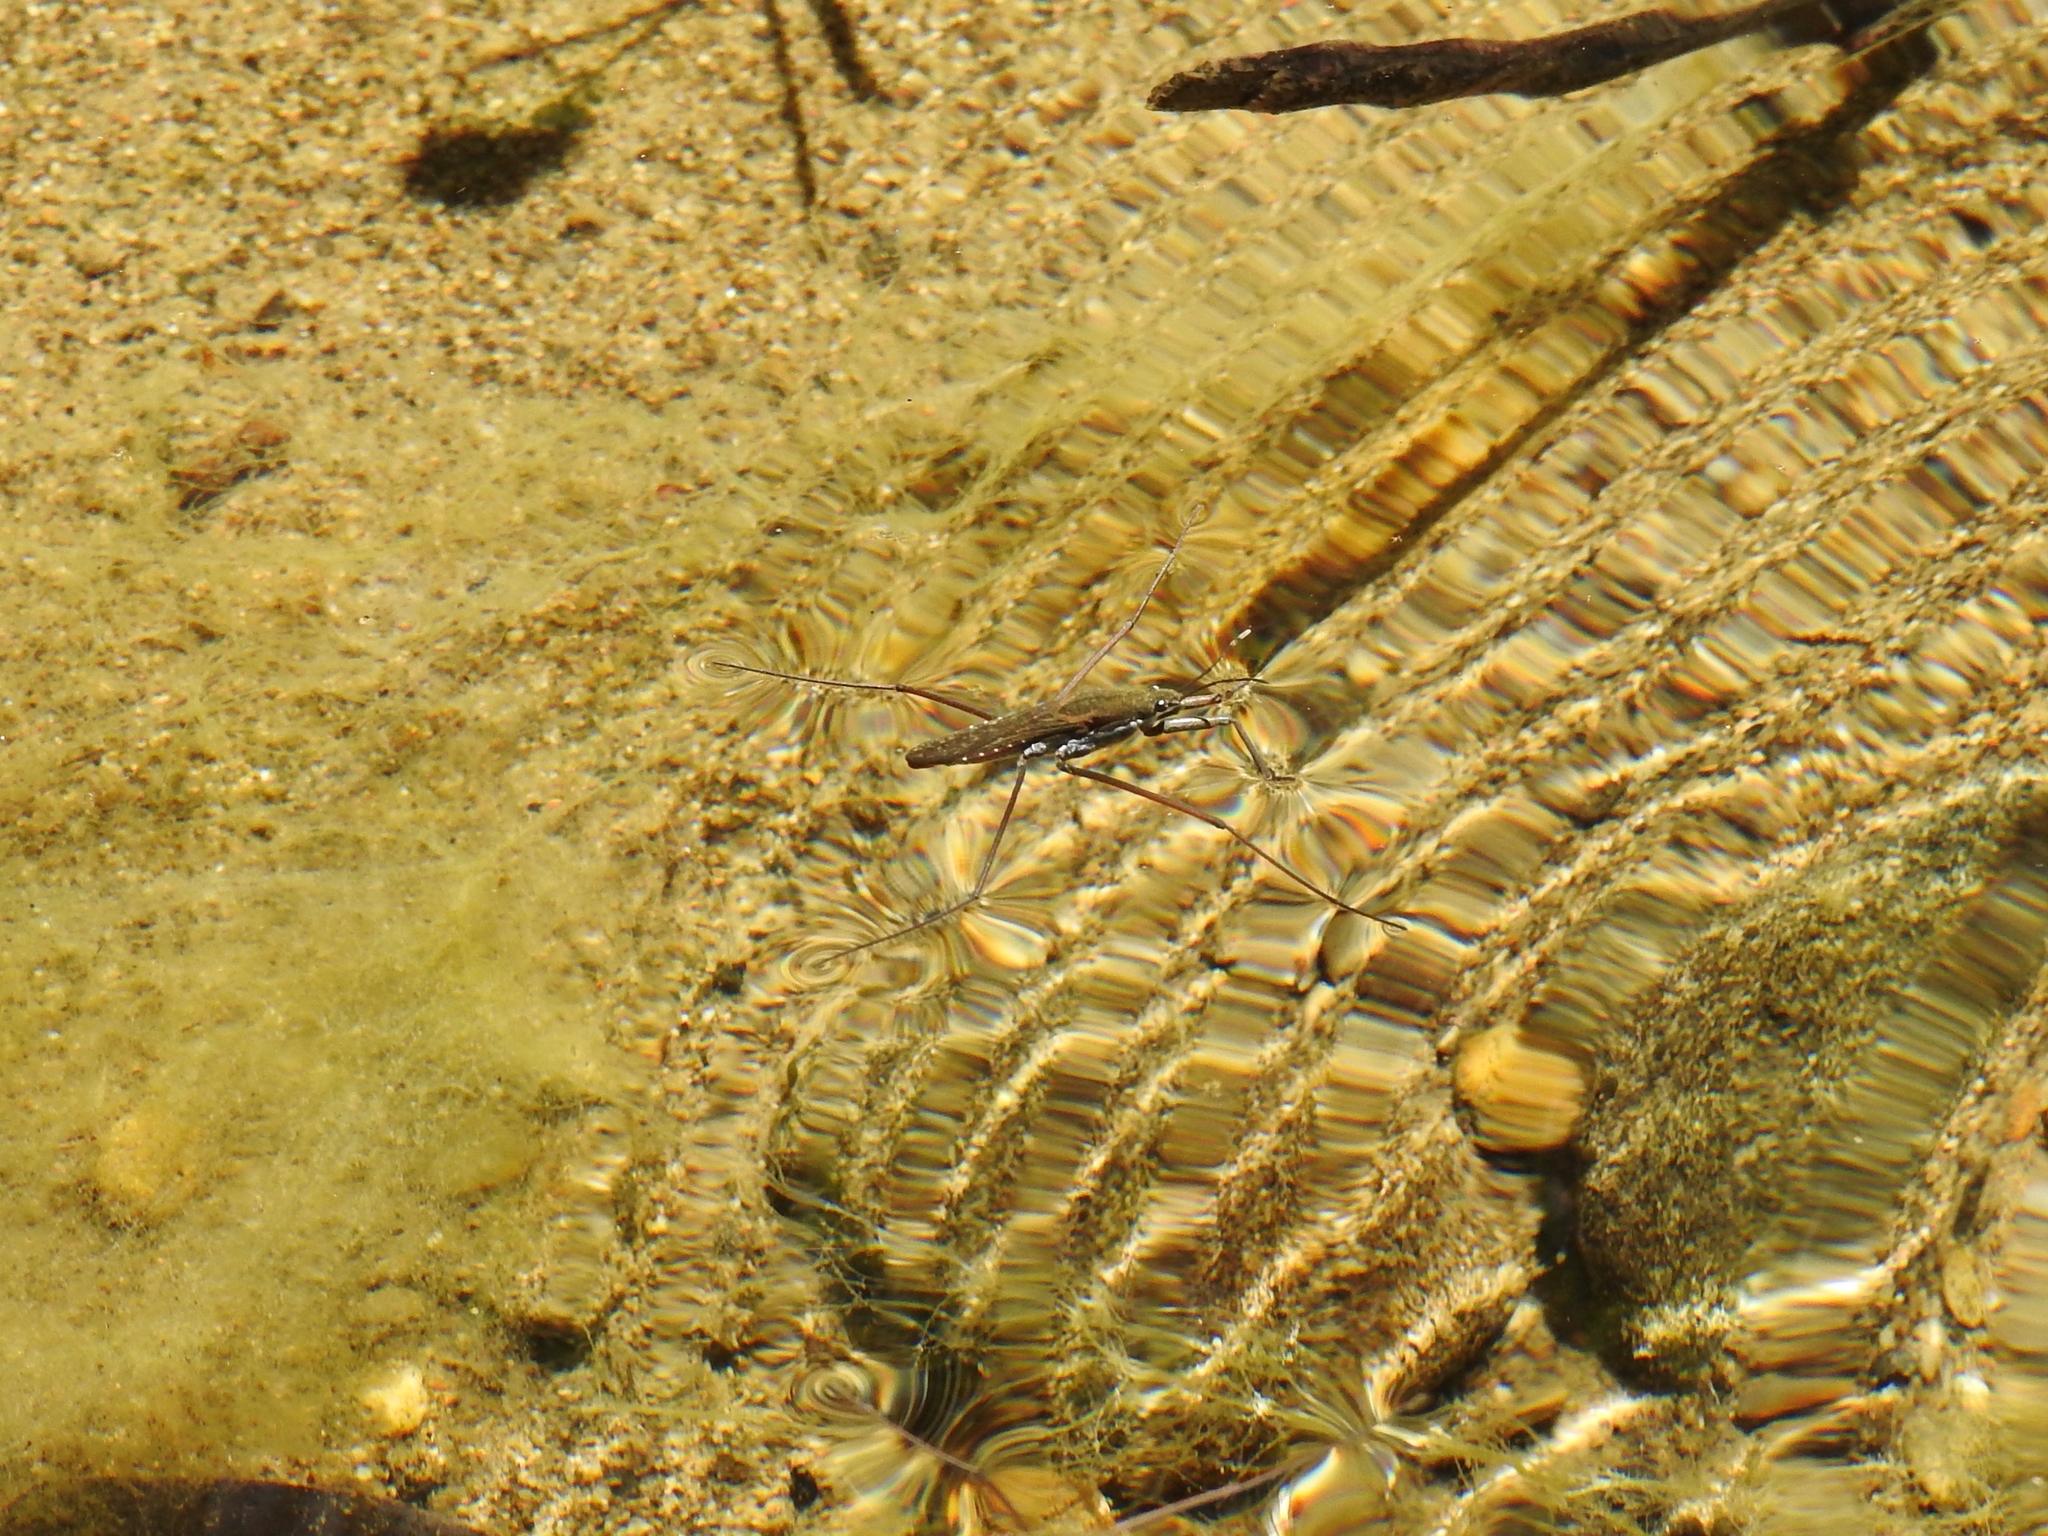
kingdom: Animalia
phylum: Arthropoda
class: Insecta
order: Hemiptera
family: Gerridae
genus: Aquarius
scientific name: Aquarius remigis
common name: Common water strider
